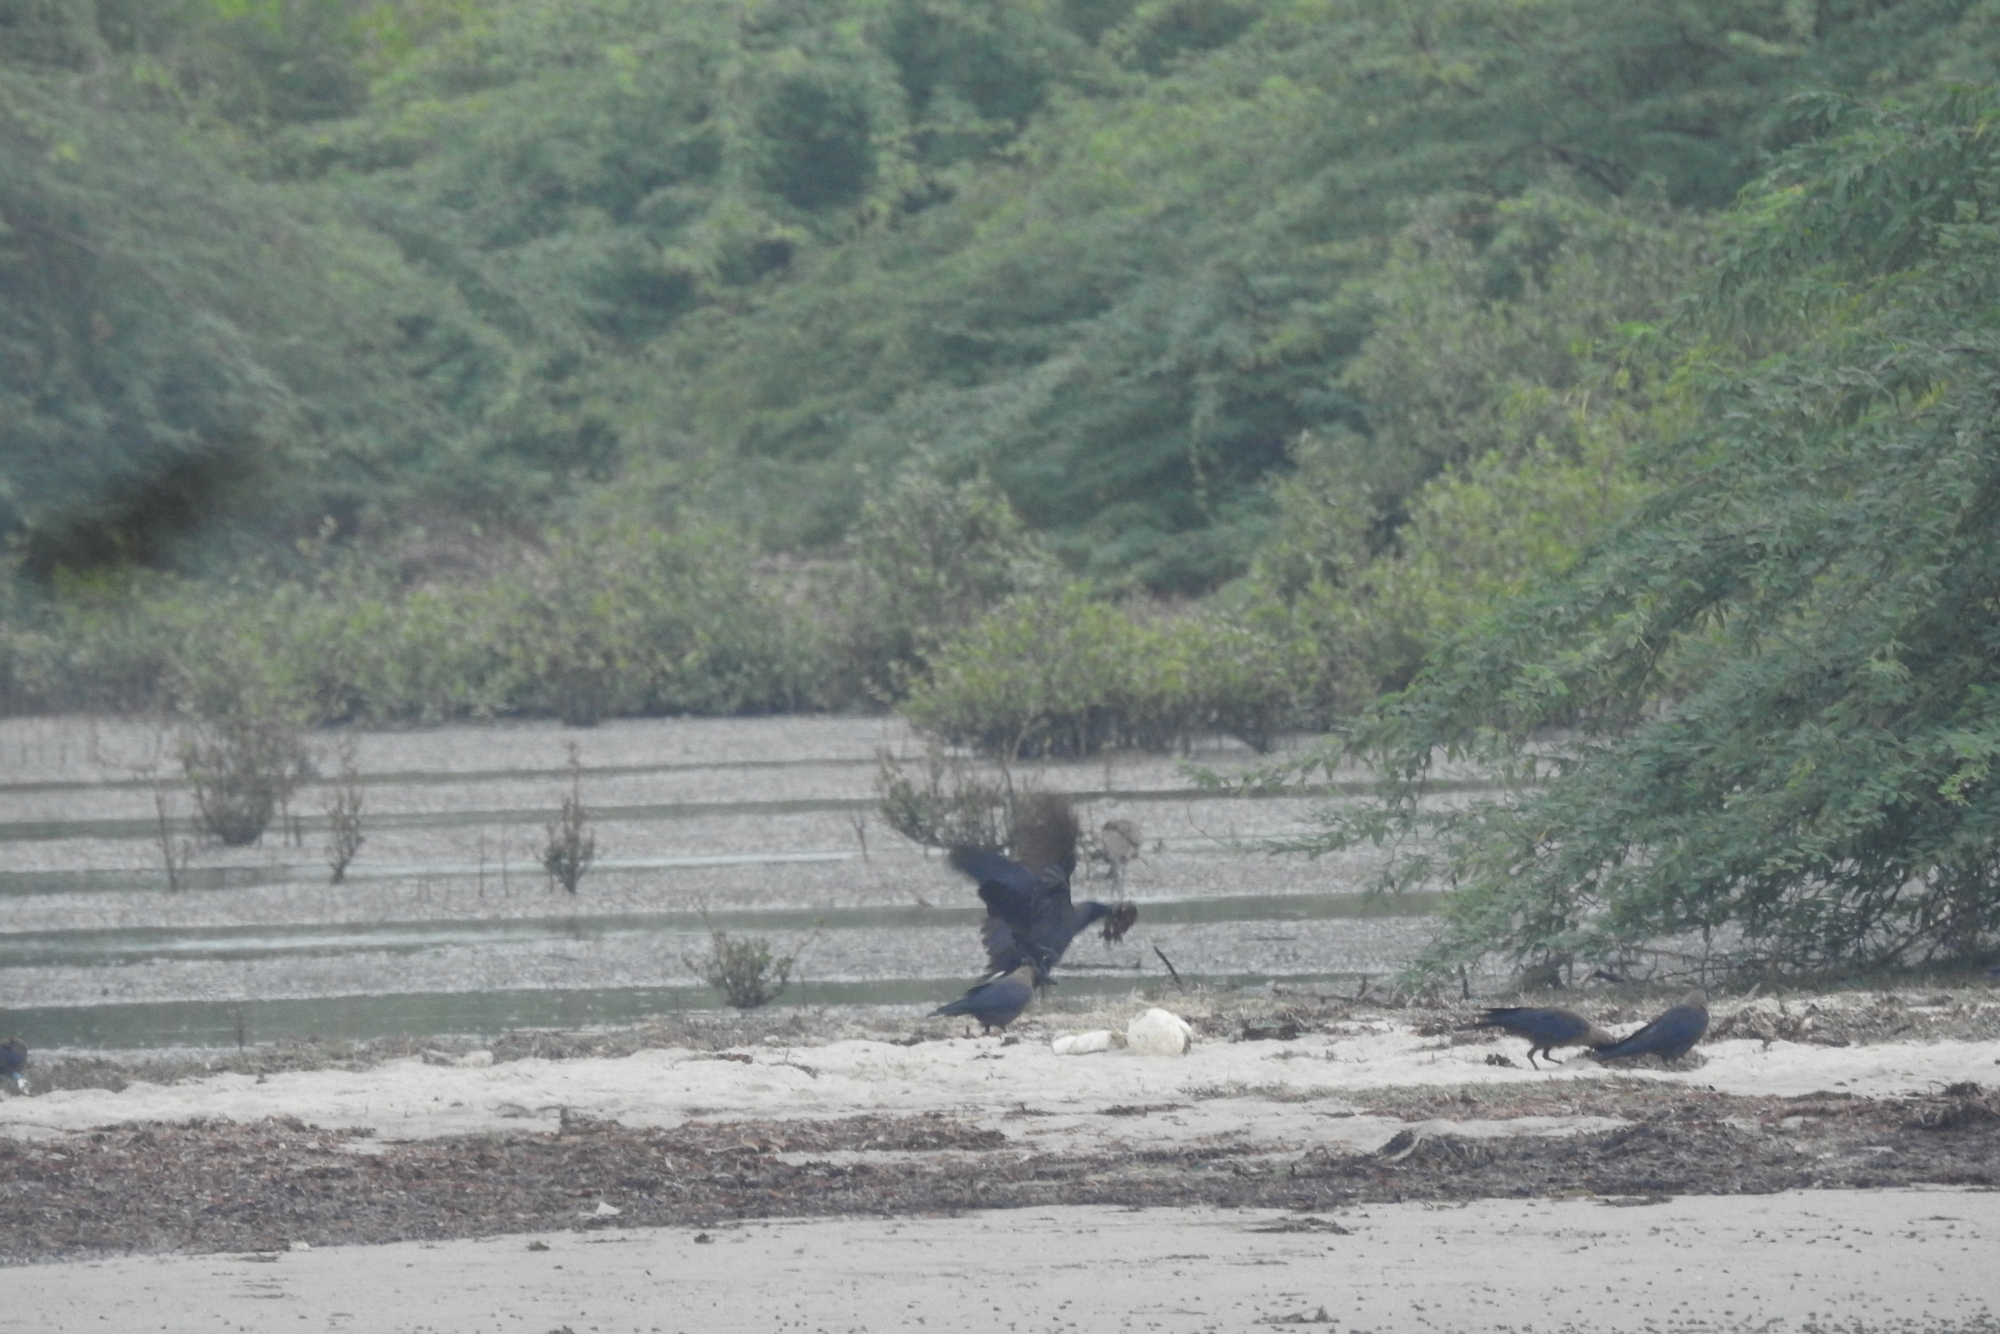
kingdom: Animalia
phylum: Chordata
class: Aves
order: Passeriformes
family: Corvidae
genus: Corvus
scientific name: Corvus splendens
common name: House crow
